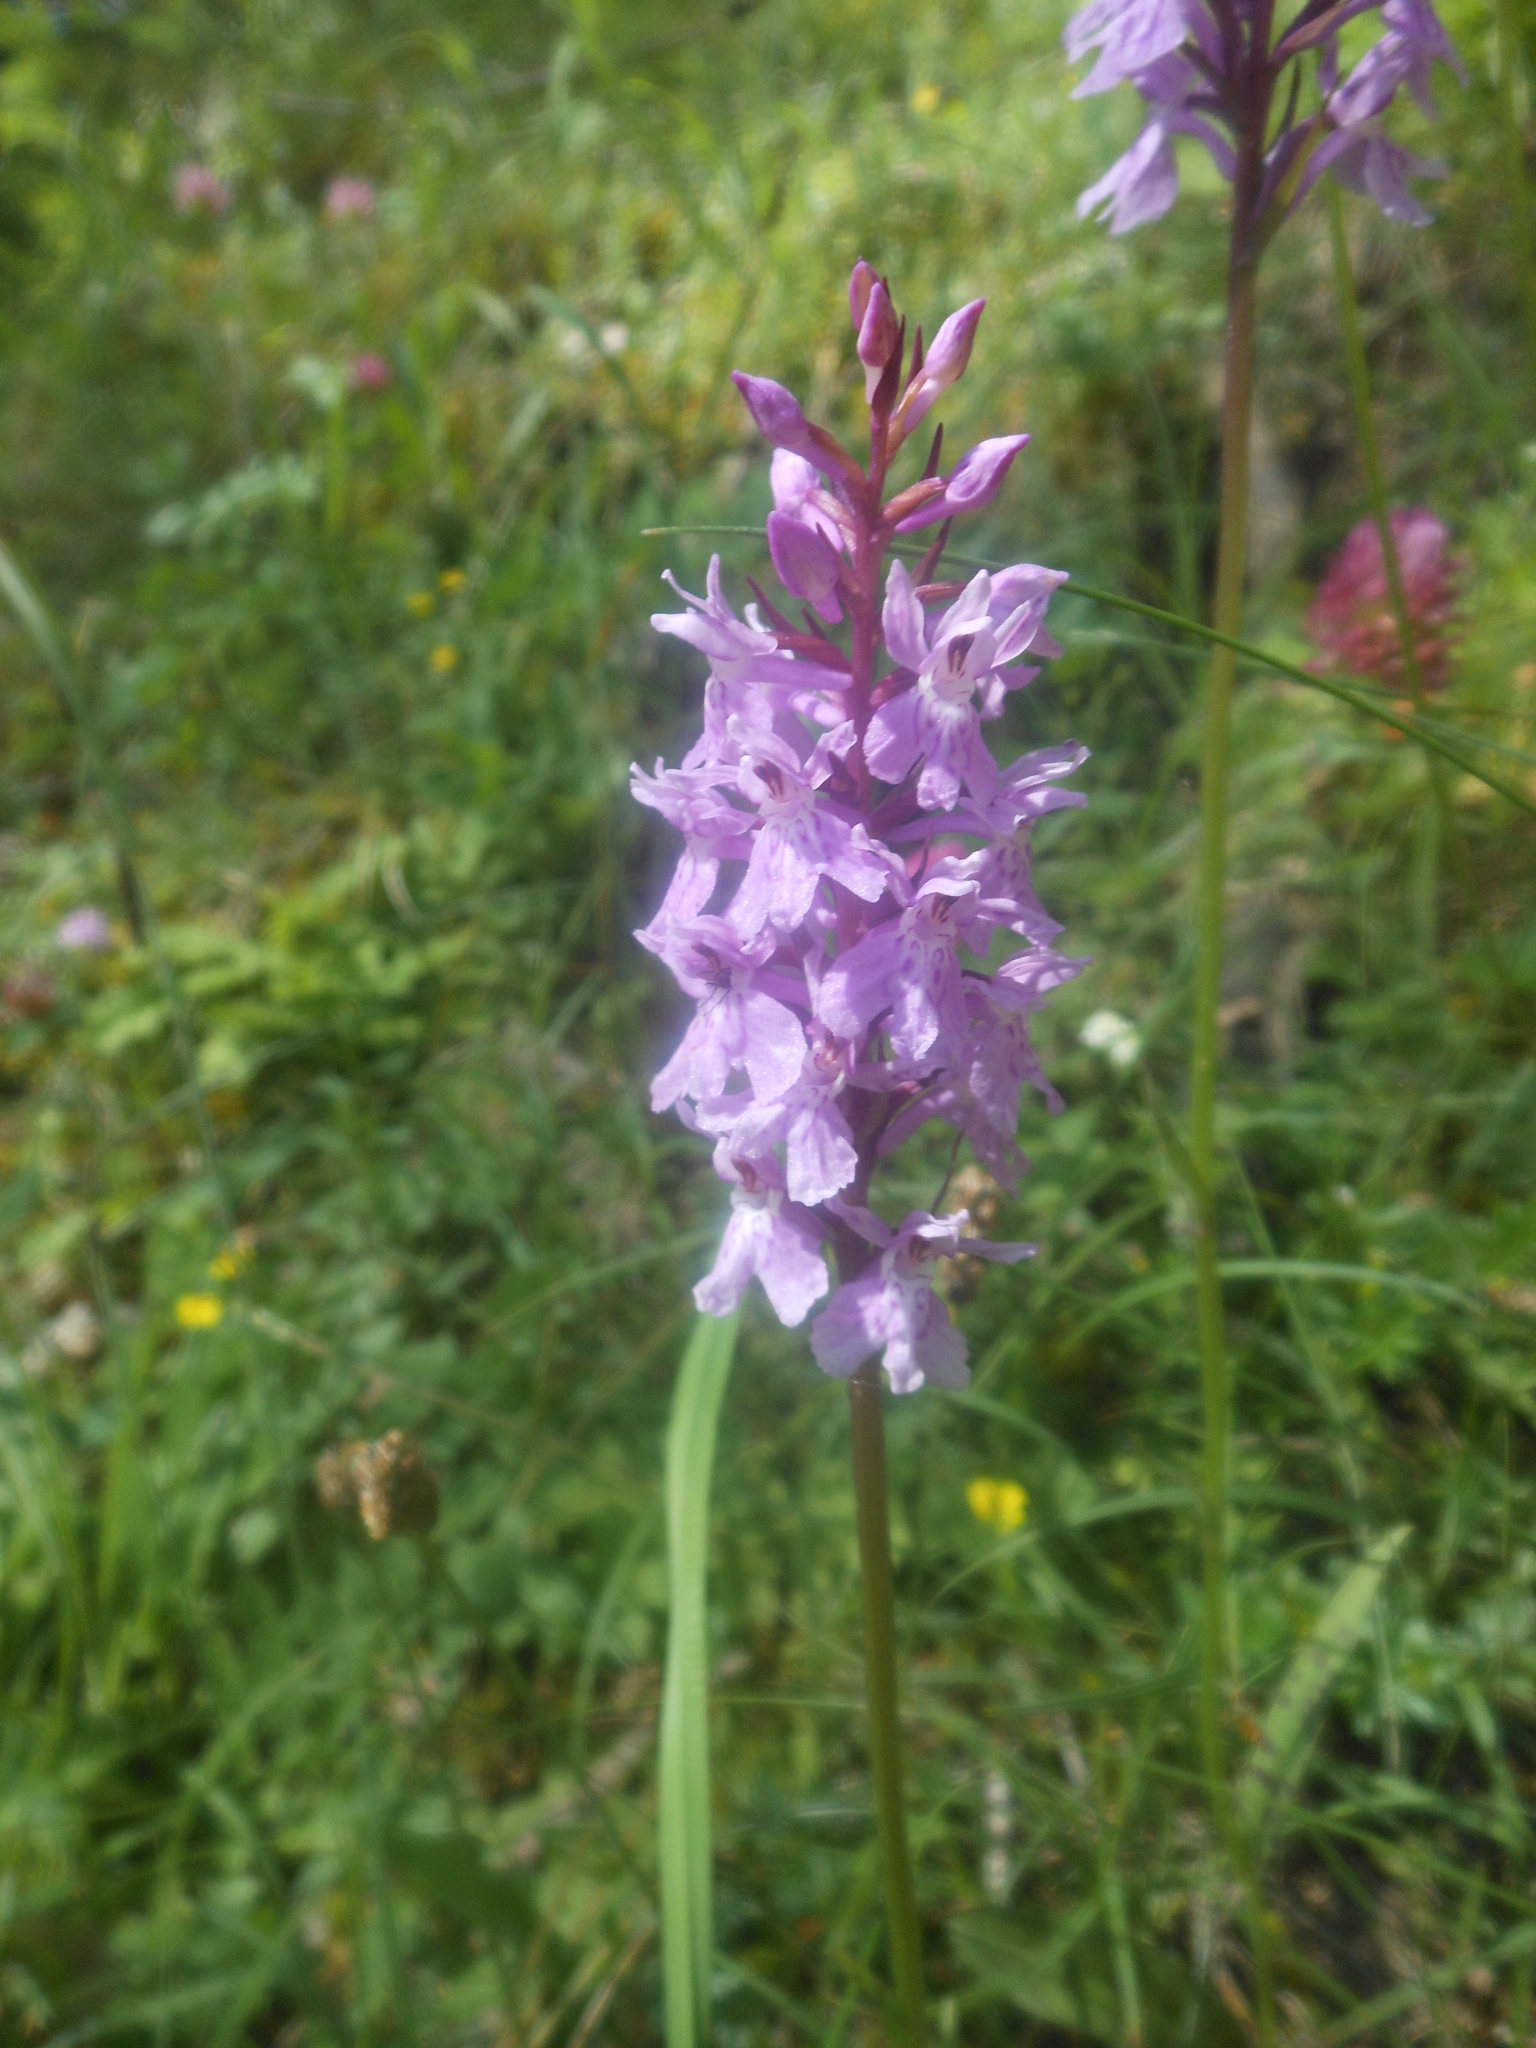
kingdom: Plantae
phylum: Tracheophyta
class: Liliopsida
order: Asparagales
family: Orchidaceae
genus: Dactylorhiza
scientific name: Dactylorhiza maculata
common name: Heath spotted-orchid
